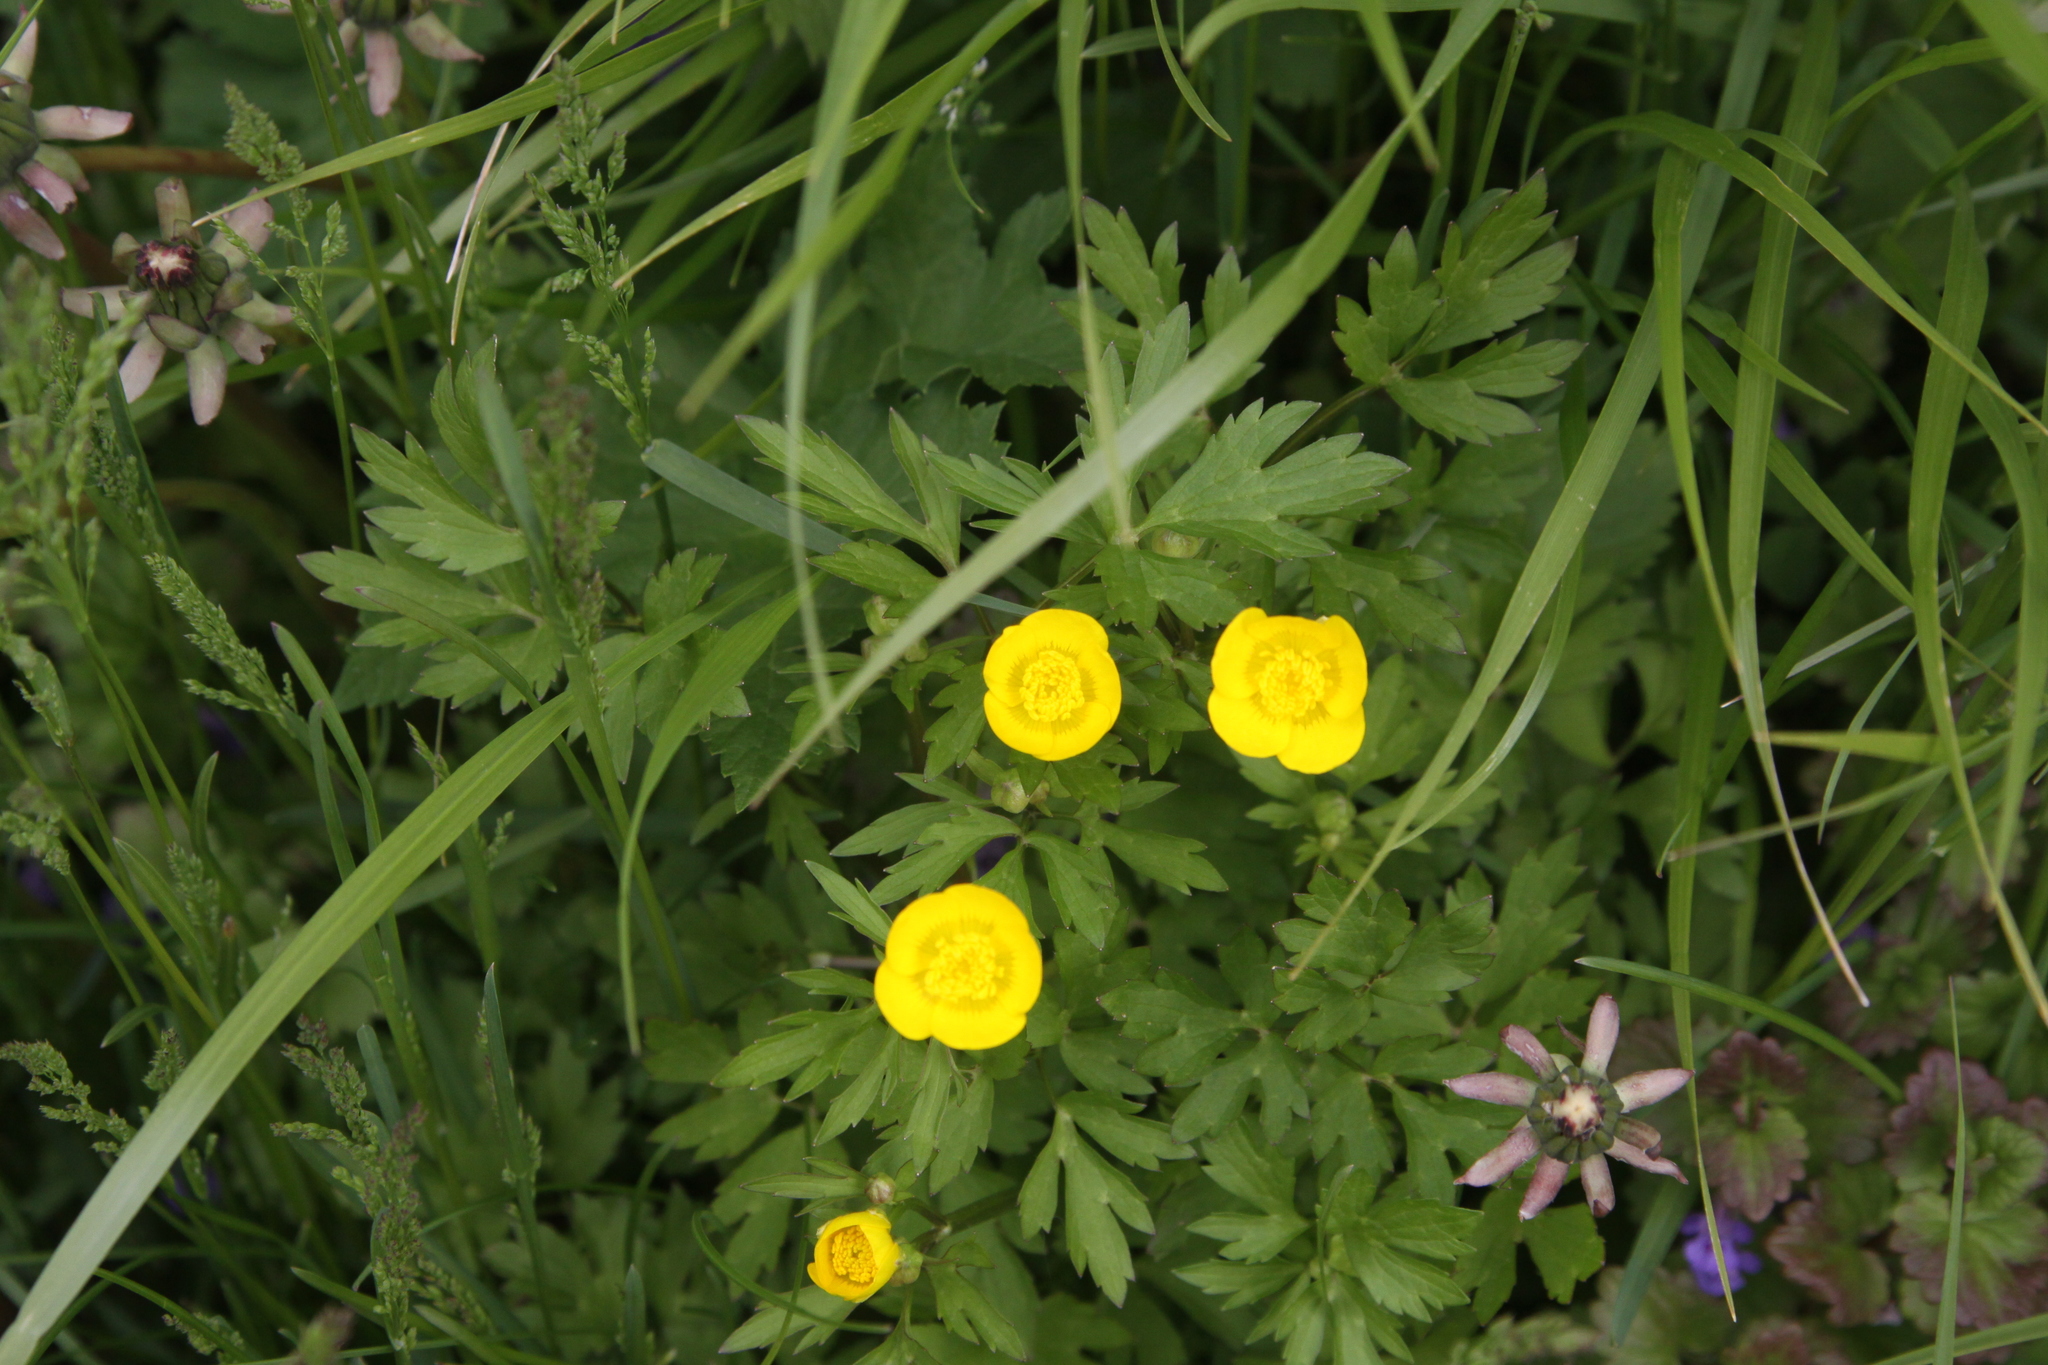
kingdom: Plantae
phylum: Tracheophyta
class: Magnoliopsida
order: Ranunculales
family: Ranunculaceae
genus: Ranunculus
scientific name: Ranunculus repens
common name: Creeping buttercup
